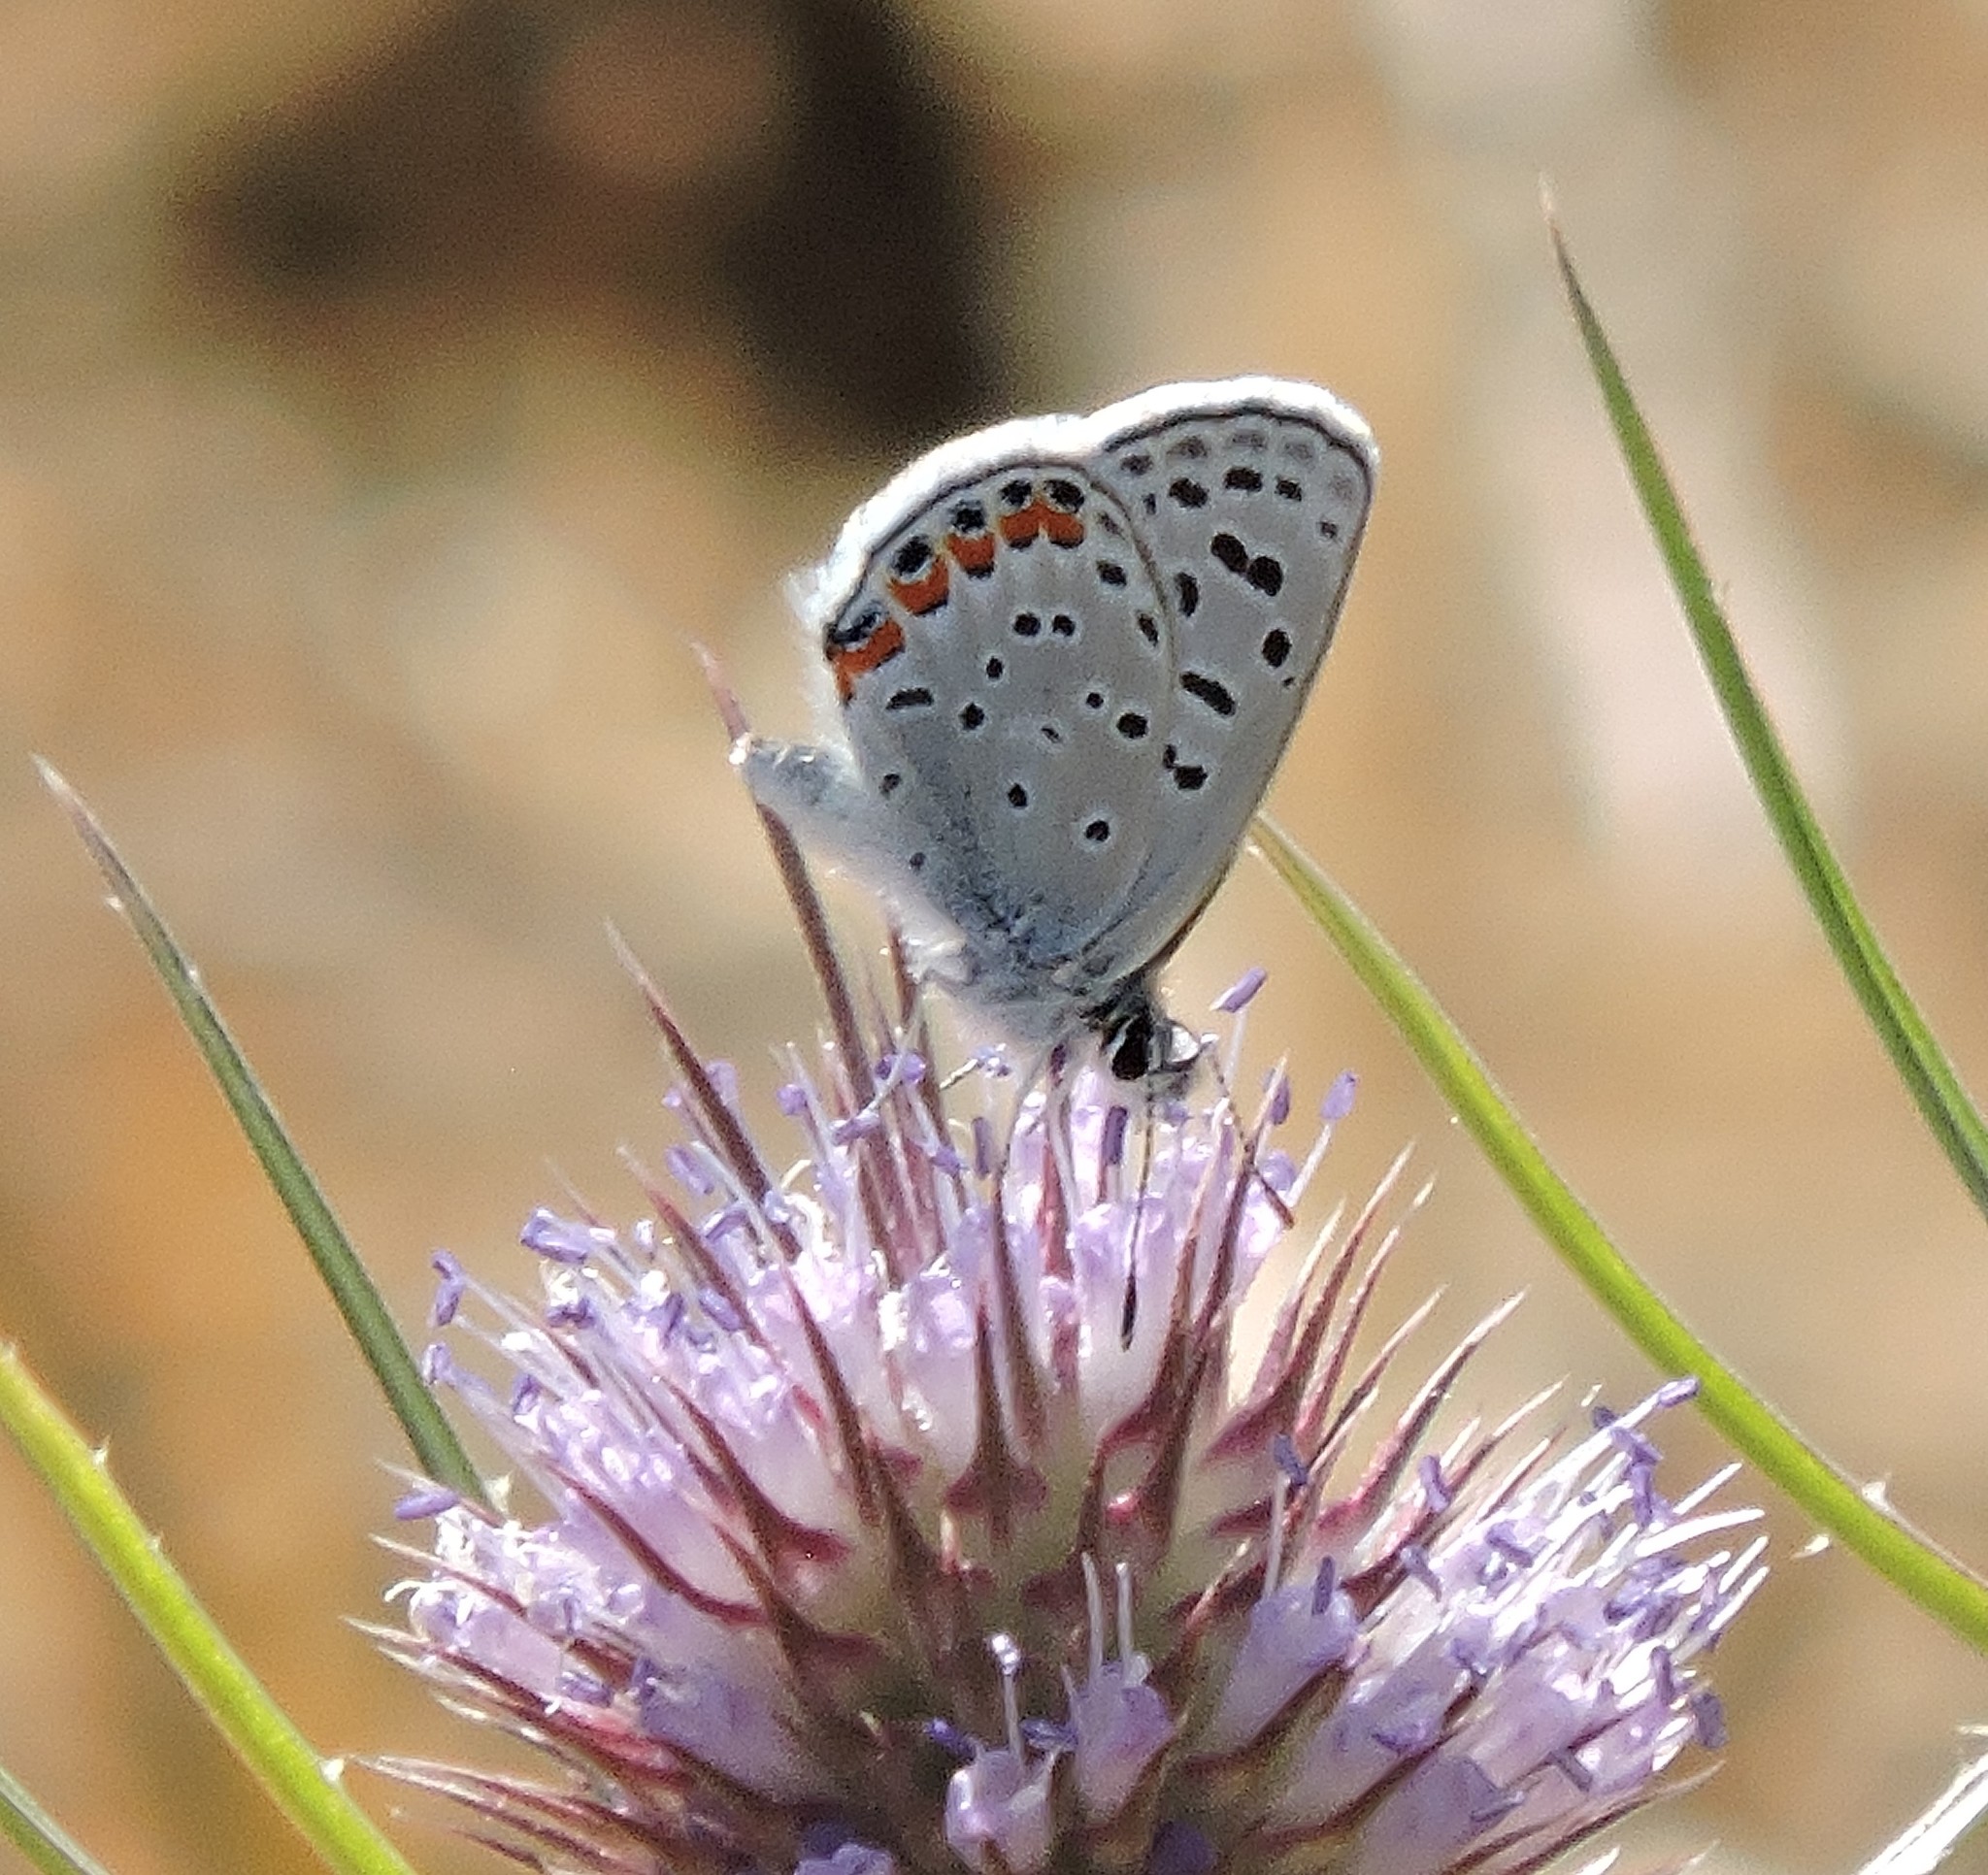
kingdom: Animalia
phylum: Arthropoda
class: Insecta
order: Lepidoptera
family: Lycaenidae
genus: Icaricia
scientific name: Icaricia acmon
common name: Acmon blue
